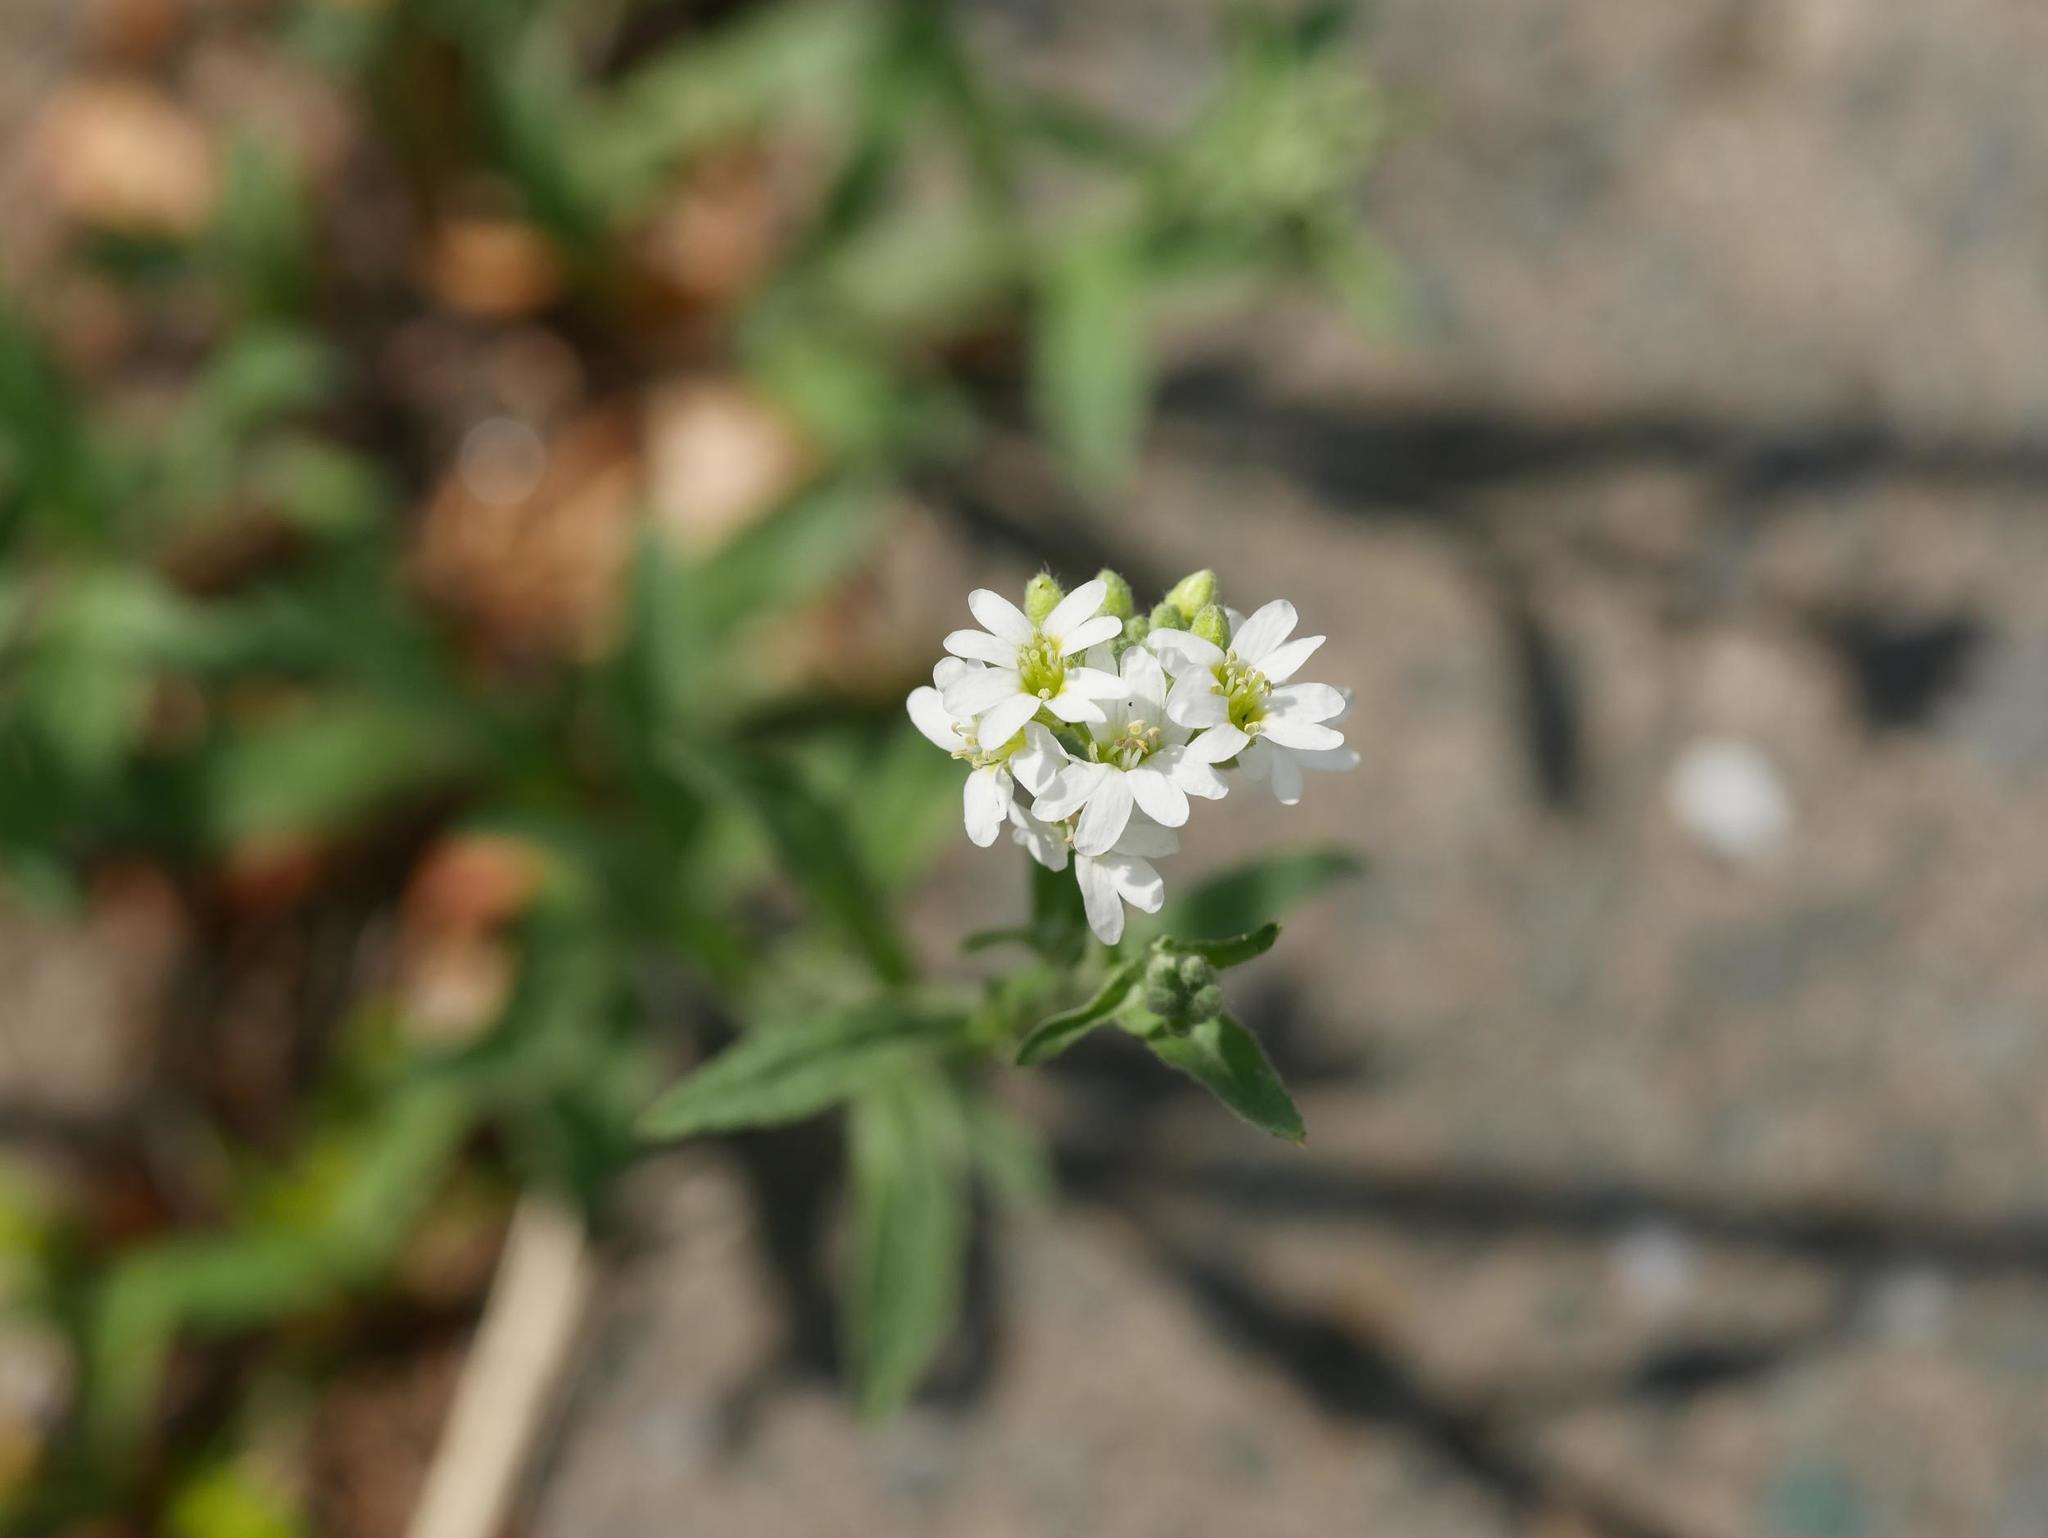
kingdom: Plantae
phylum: Tracheophyta
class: Magnoliopsida
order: Brassicales
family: Brassicaceae
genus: Berteroa
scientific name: Berteroa incana
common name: Hoary alison
